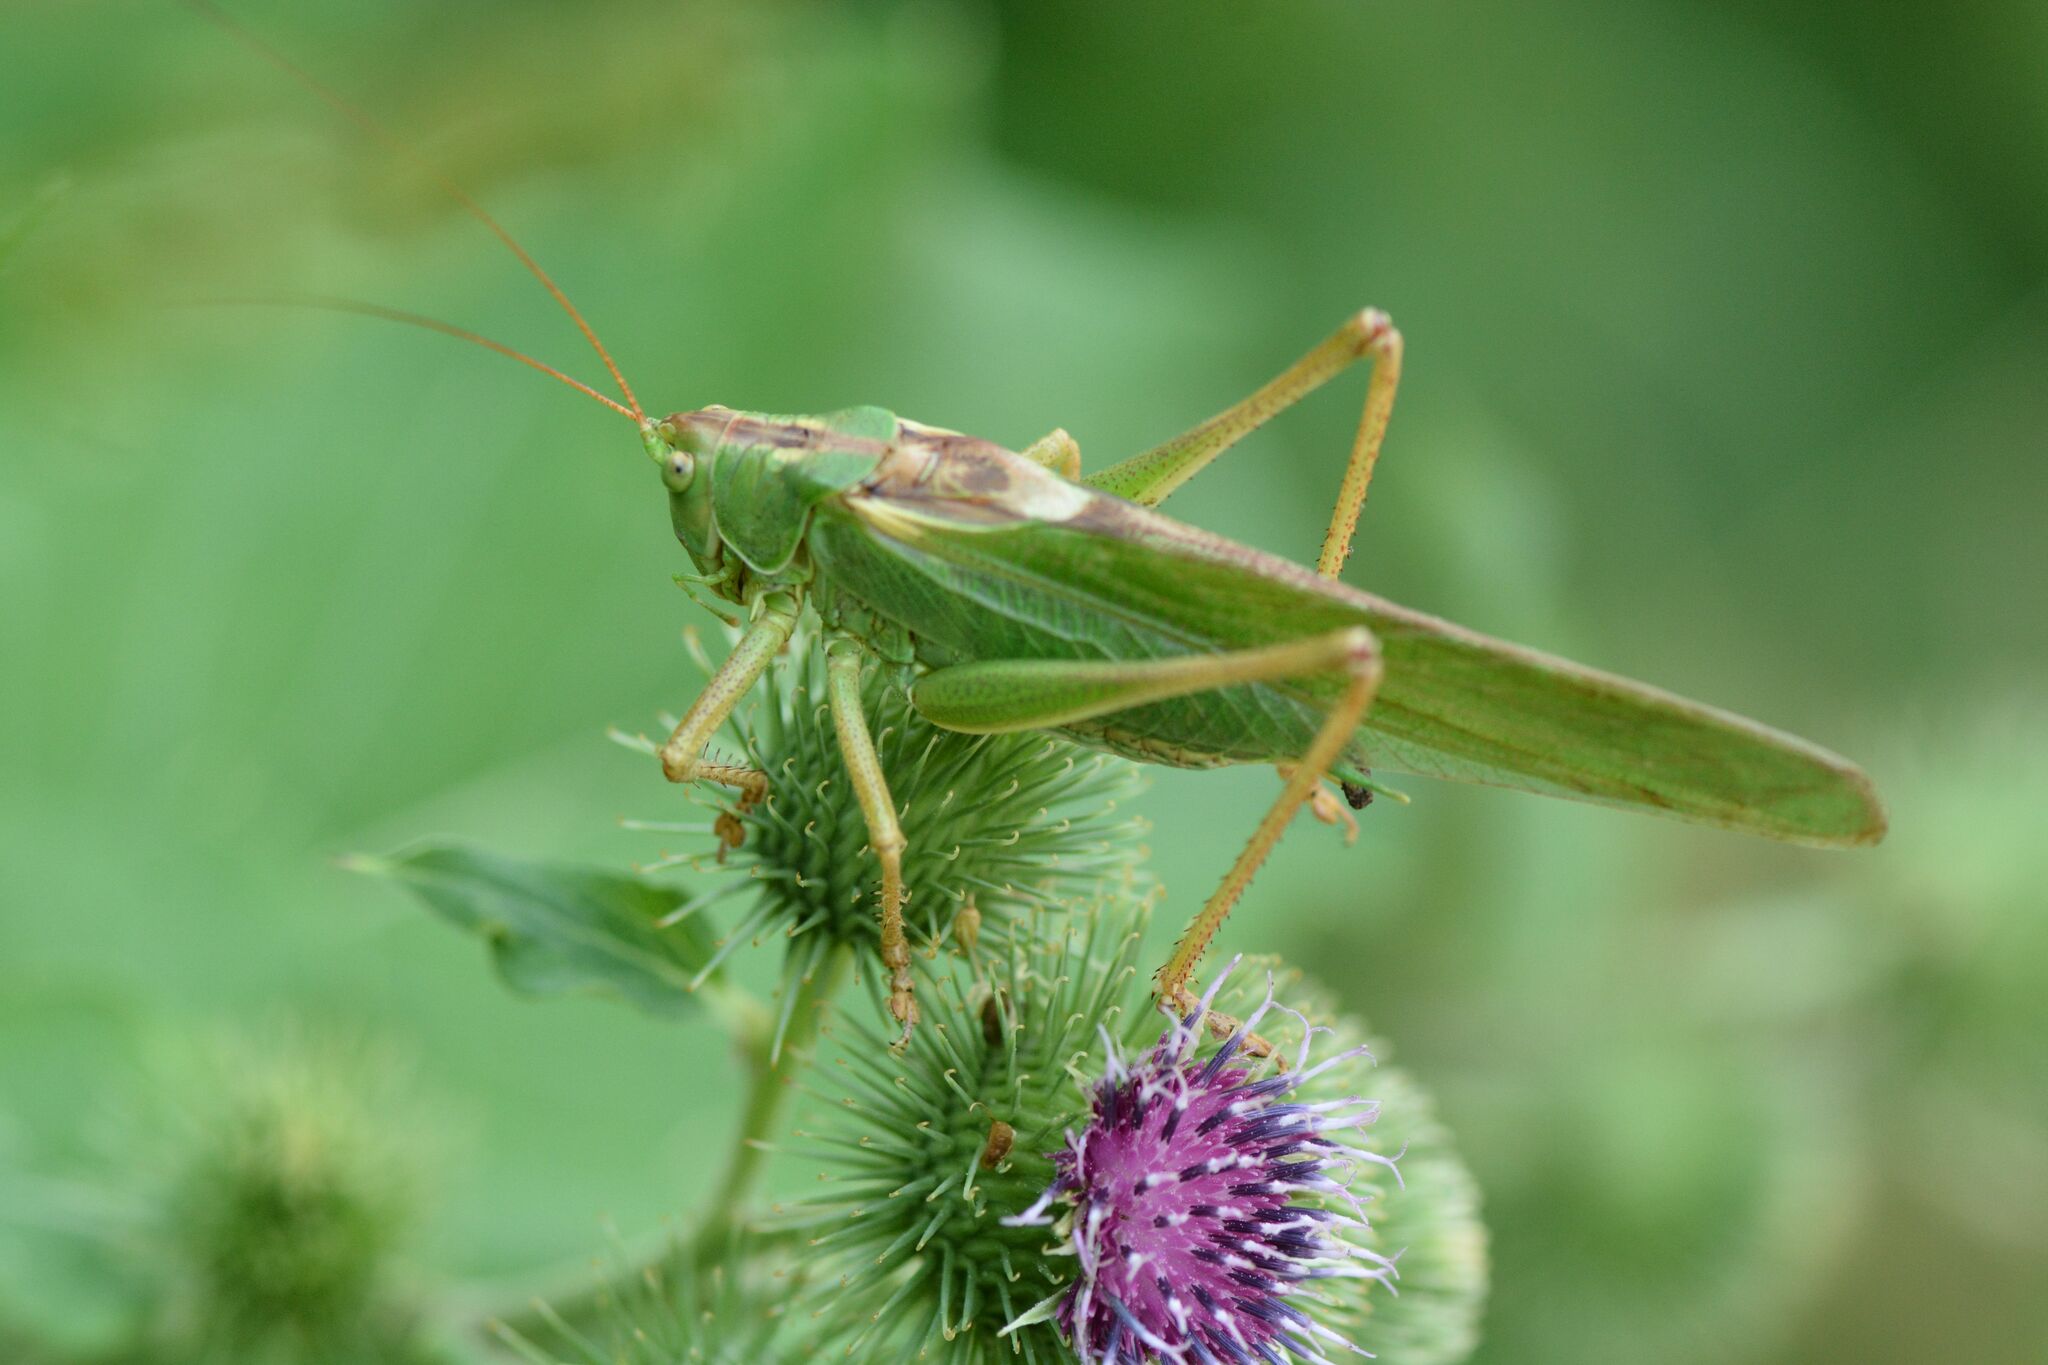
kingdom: Animalia
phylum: Arthropoda
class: Insecta
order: Orthoptera
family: Tettigoniidae
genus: Tettigonia
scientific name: Tettigonia viridissima
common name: Great green bush-cricket
